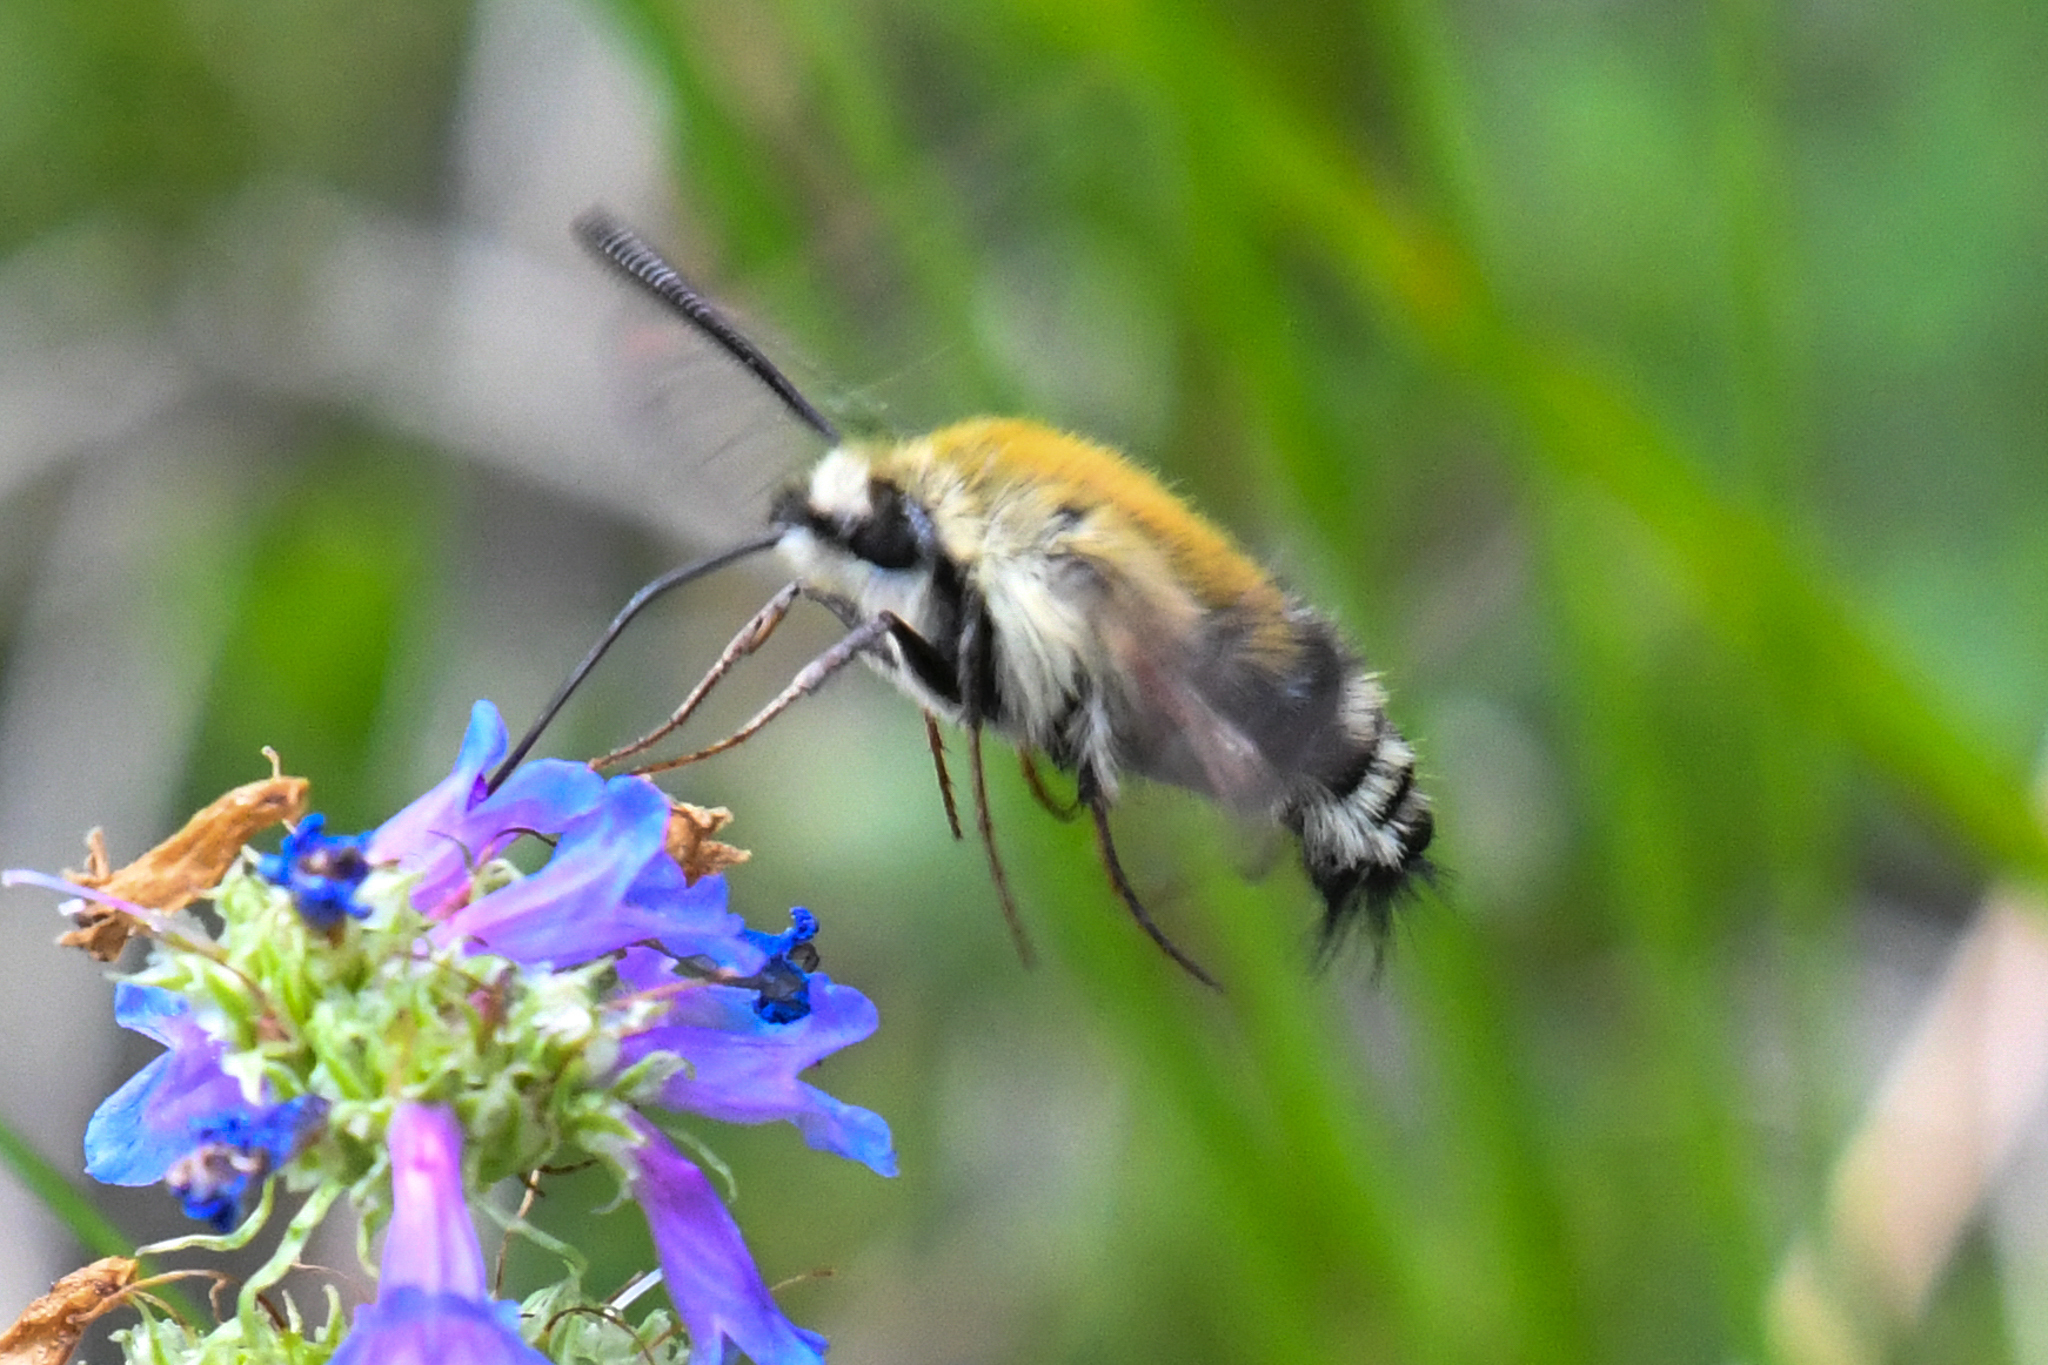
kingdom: Animalia
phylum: Arthropoda
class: Insecta
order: Lepidoptera
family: Sphingidae
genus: Hemaris
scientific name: Hemaris thetis
